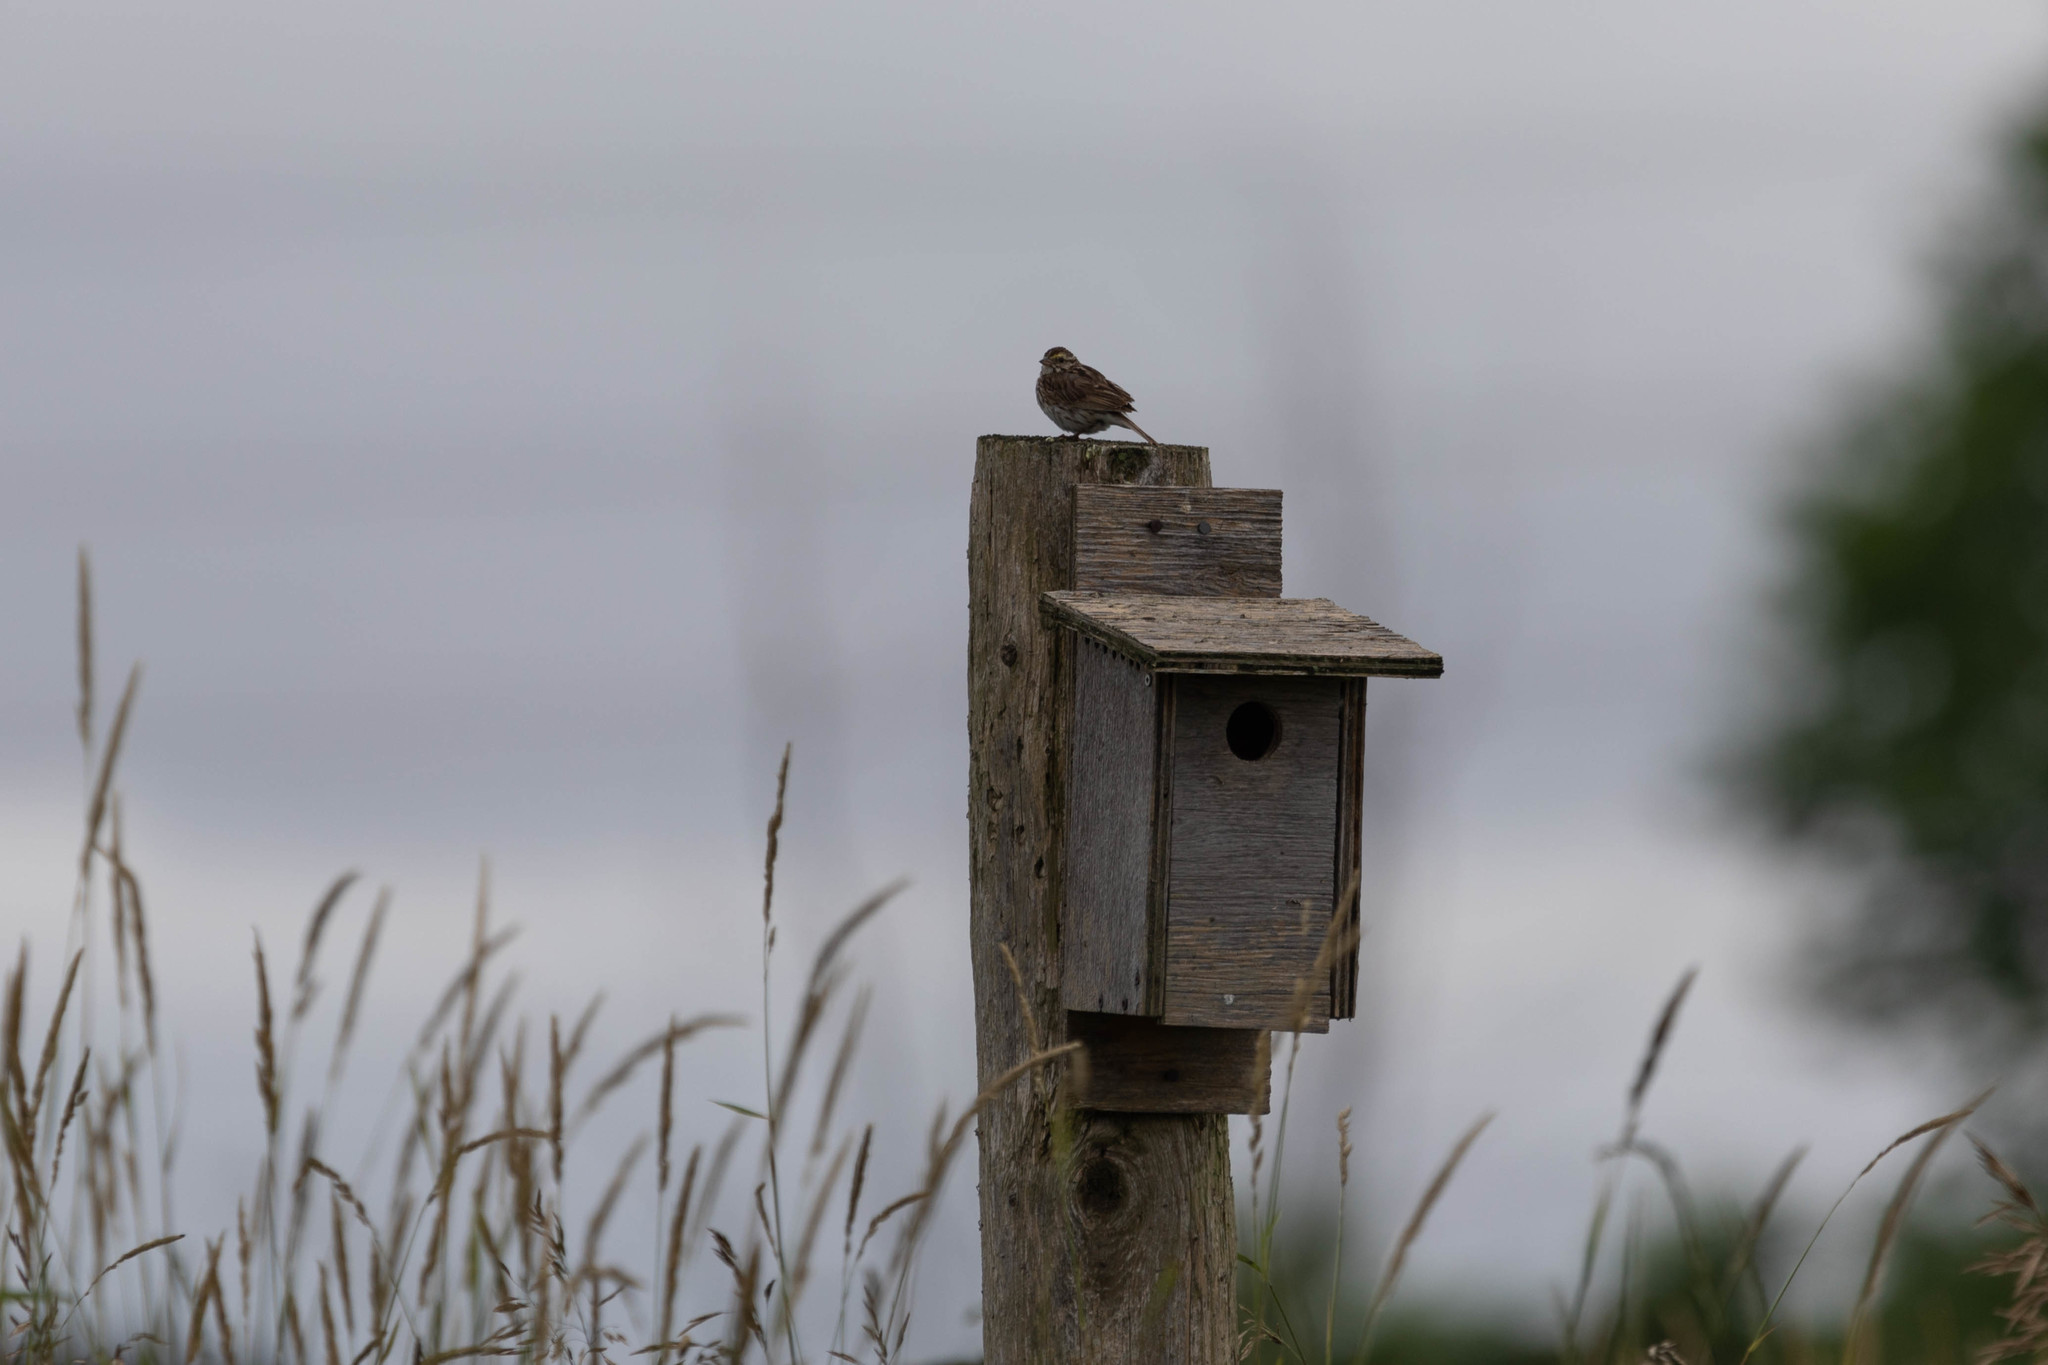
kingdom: Animalia
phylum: Chordata
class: Aves
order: Passeriformes
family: Passerellidae
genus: Passerculus
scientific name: Passerculus sandwichensis
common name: Savannah sparrow
